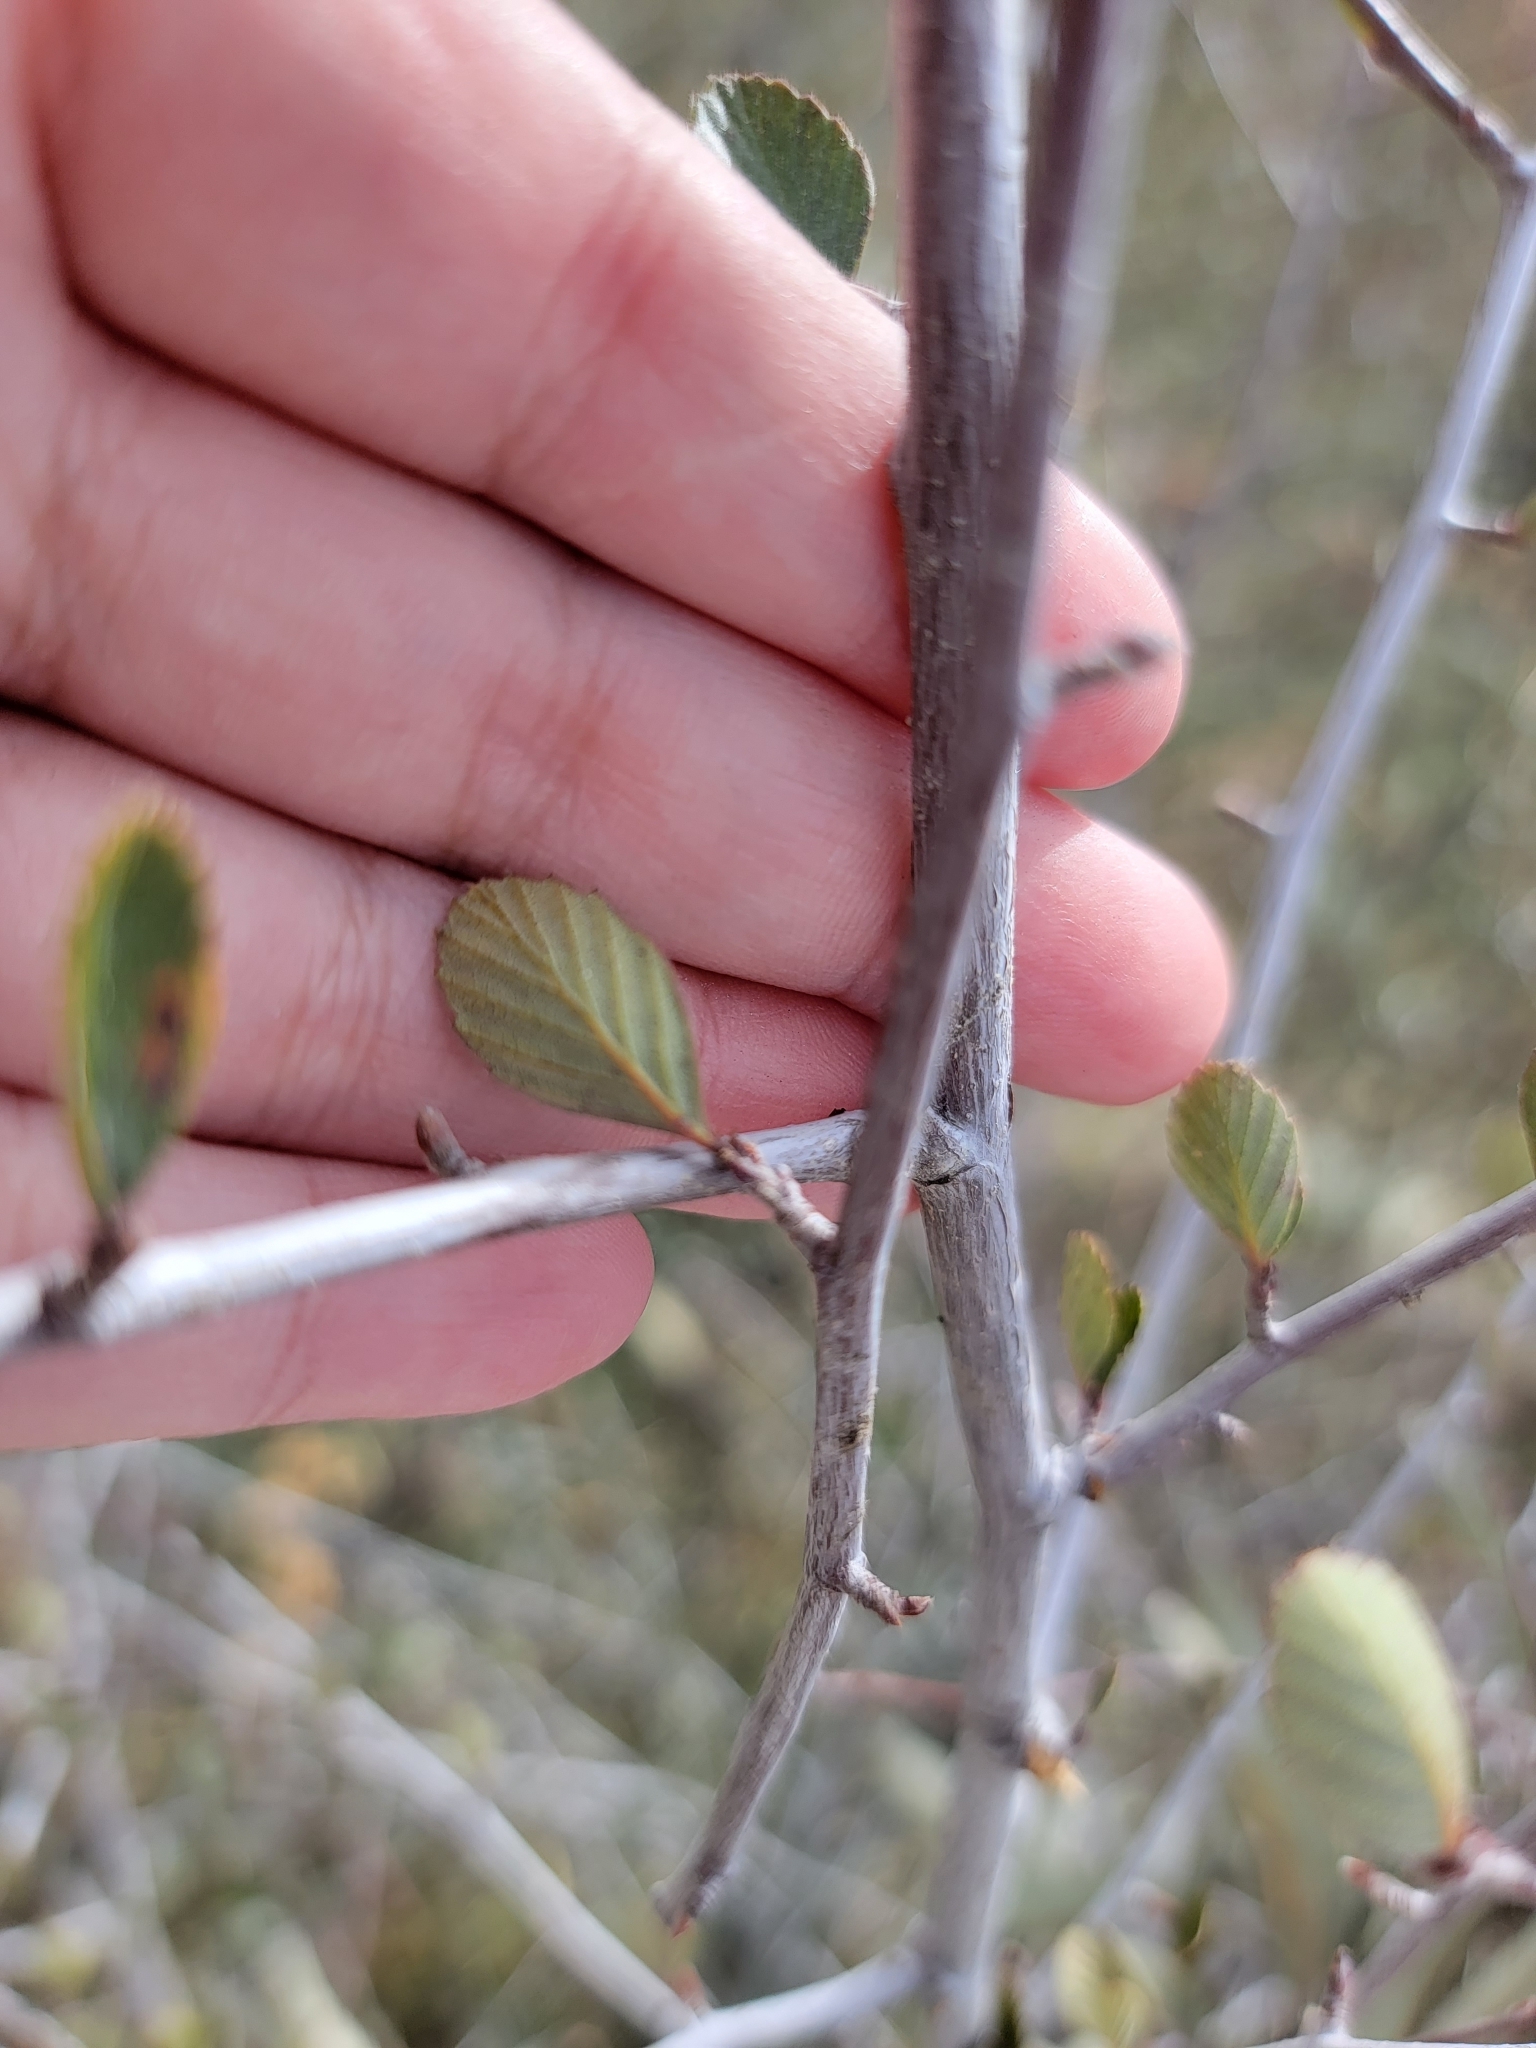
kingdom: Plantae
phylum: Tracheophyta
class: Magnoliopsida
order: Rosales
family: Rosaceae
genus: Cercocarpus
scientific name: Cercocarpus betuloides
